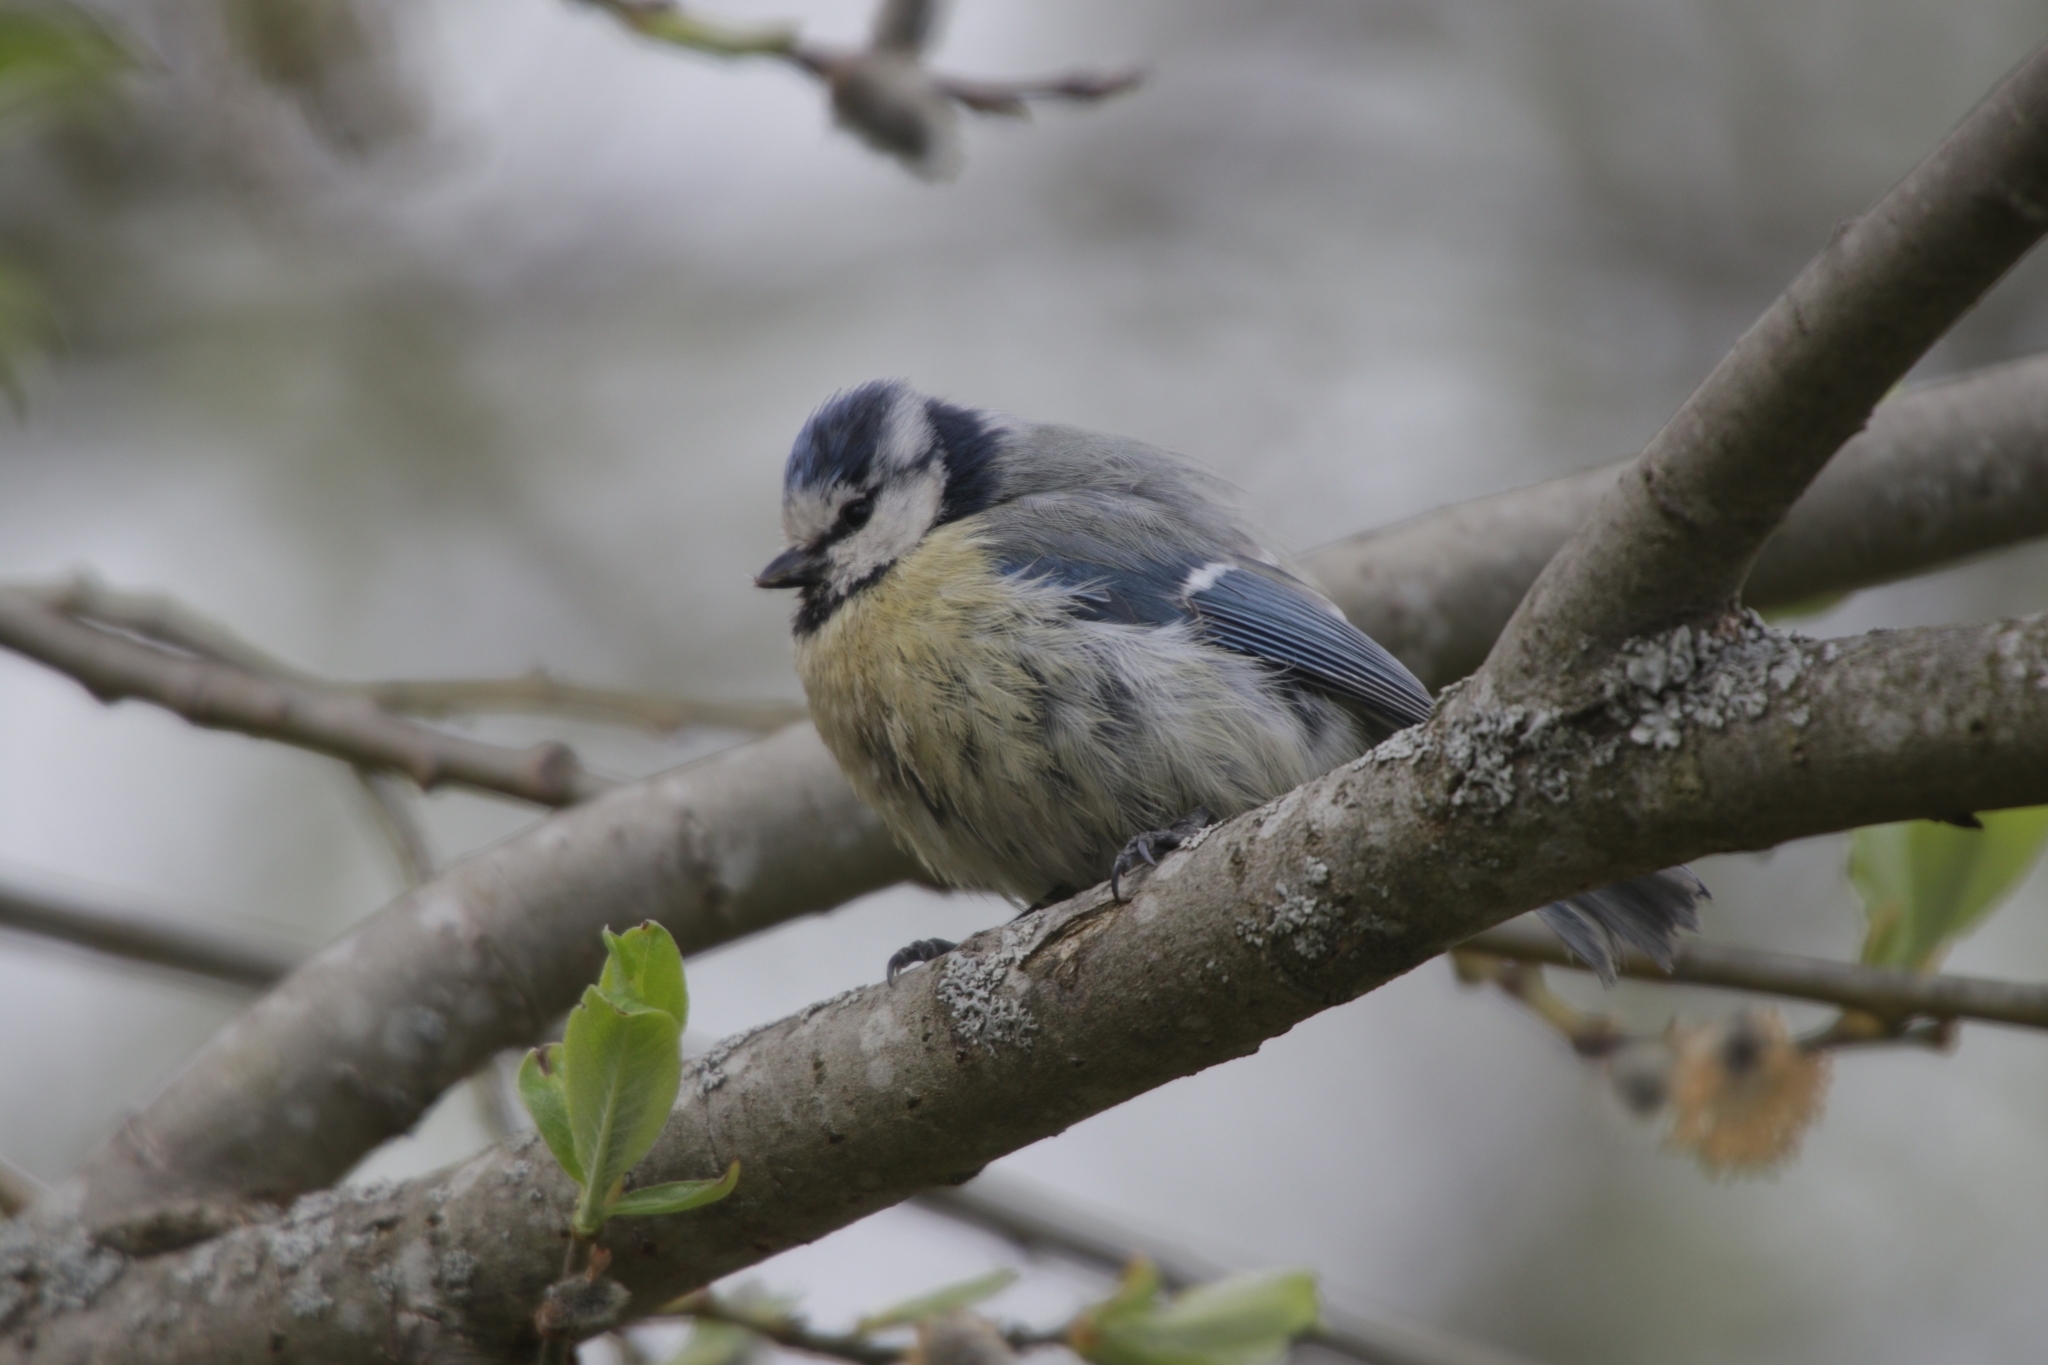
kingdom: Animalia
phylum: Chordata
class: Aves
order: Passeriformes
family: Paridae
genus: Cyanistes
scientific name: Cyanistes caeruleus
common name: Eurasian blue tit
